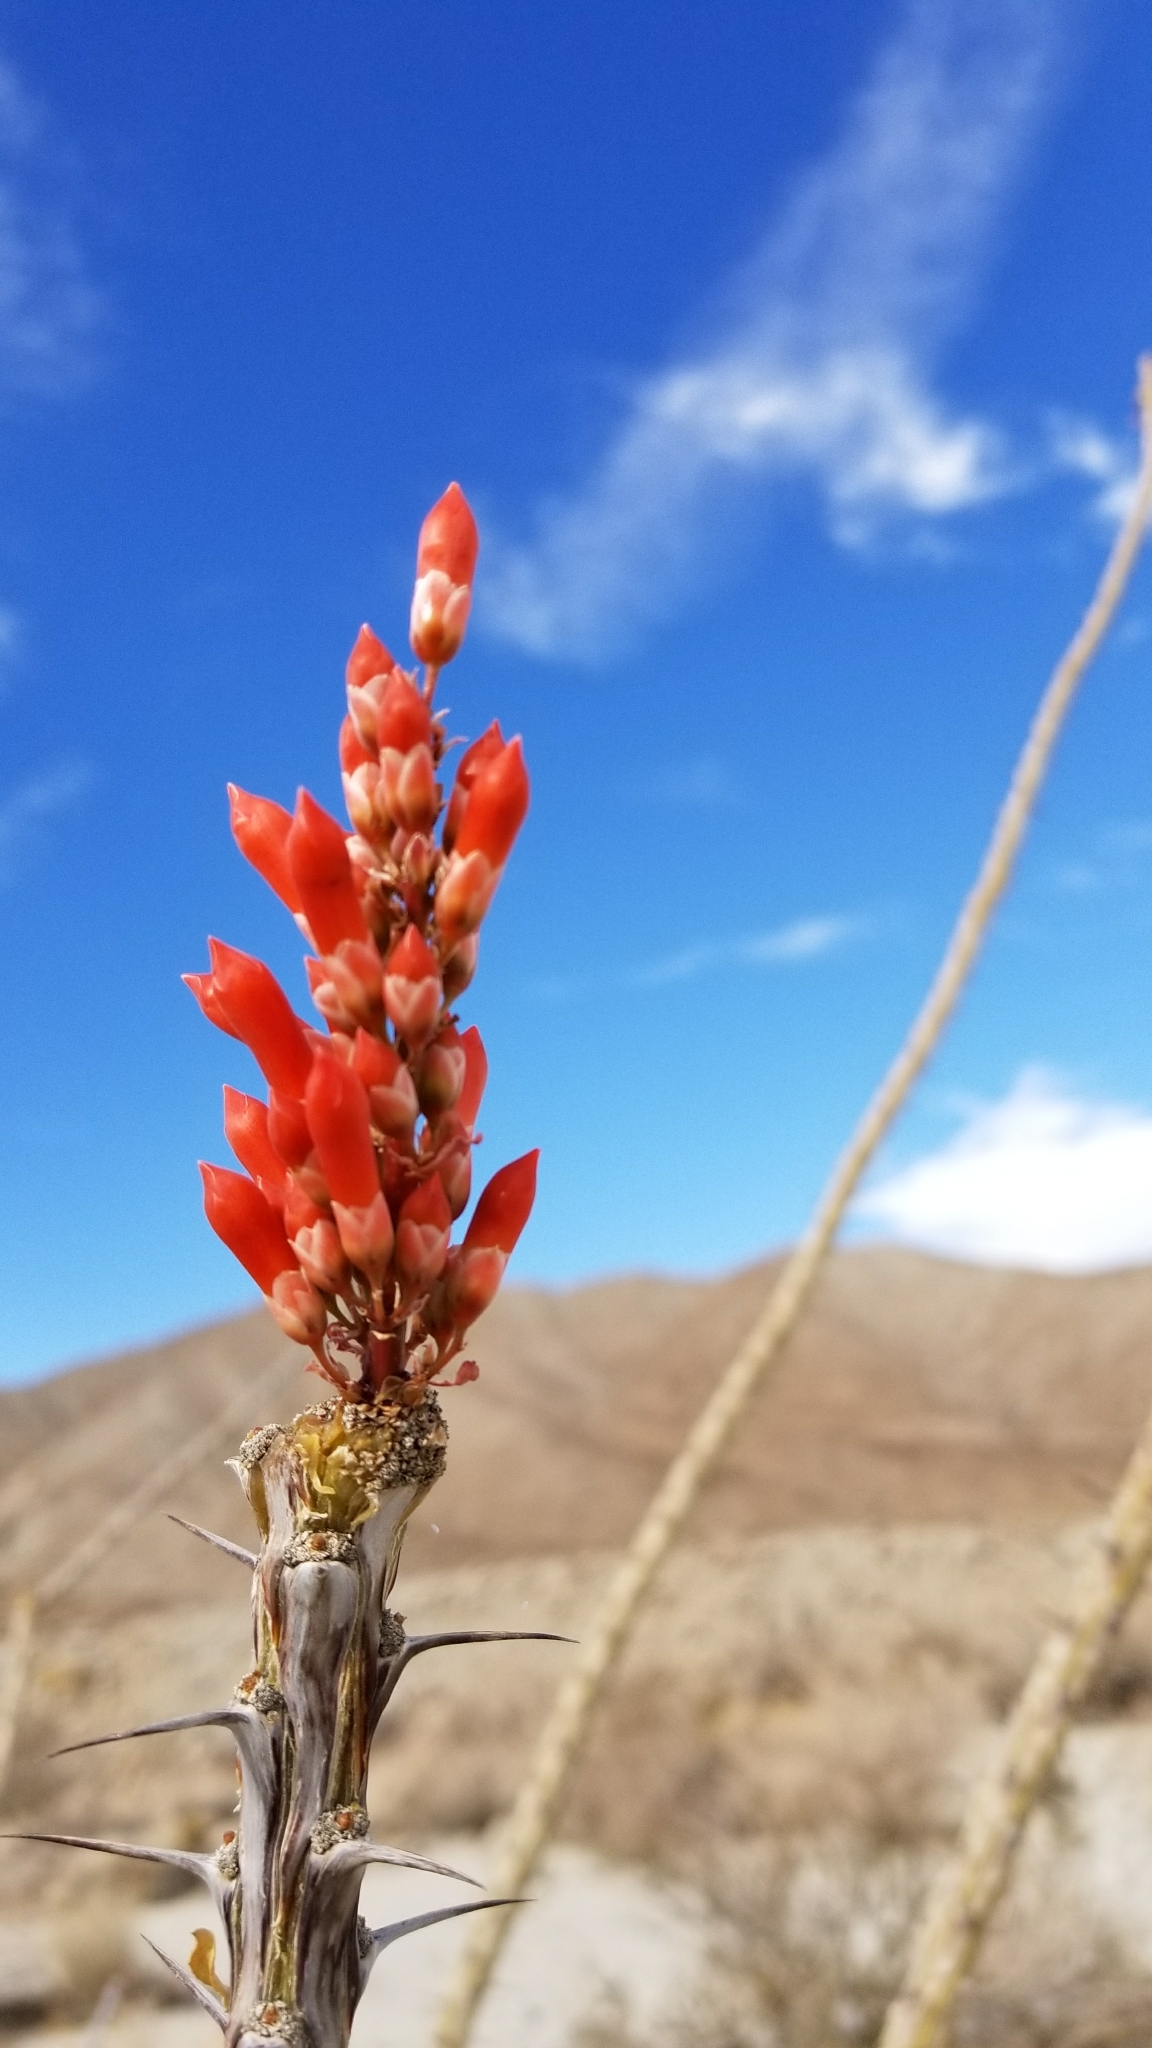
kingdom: Plantae
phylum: Tracheophyta
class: Magnoliopsida
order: Ericales
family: Fouquieriaceae
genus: Fouquieria
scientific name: Fouquieria splendens
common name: Vine-cactus
